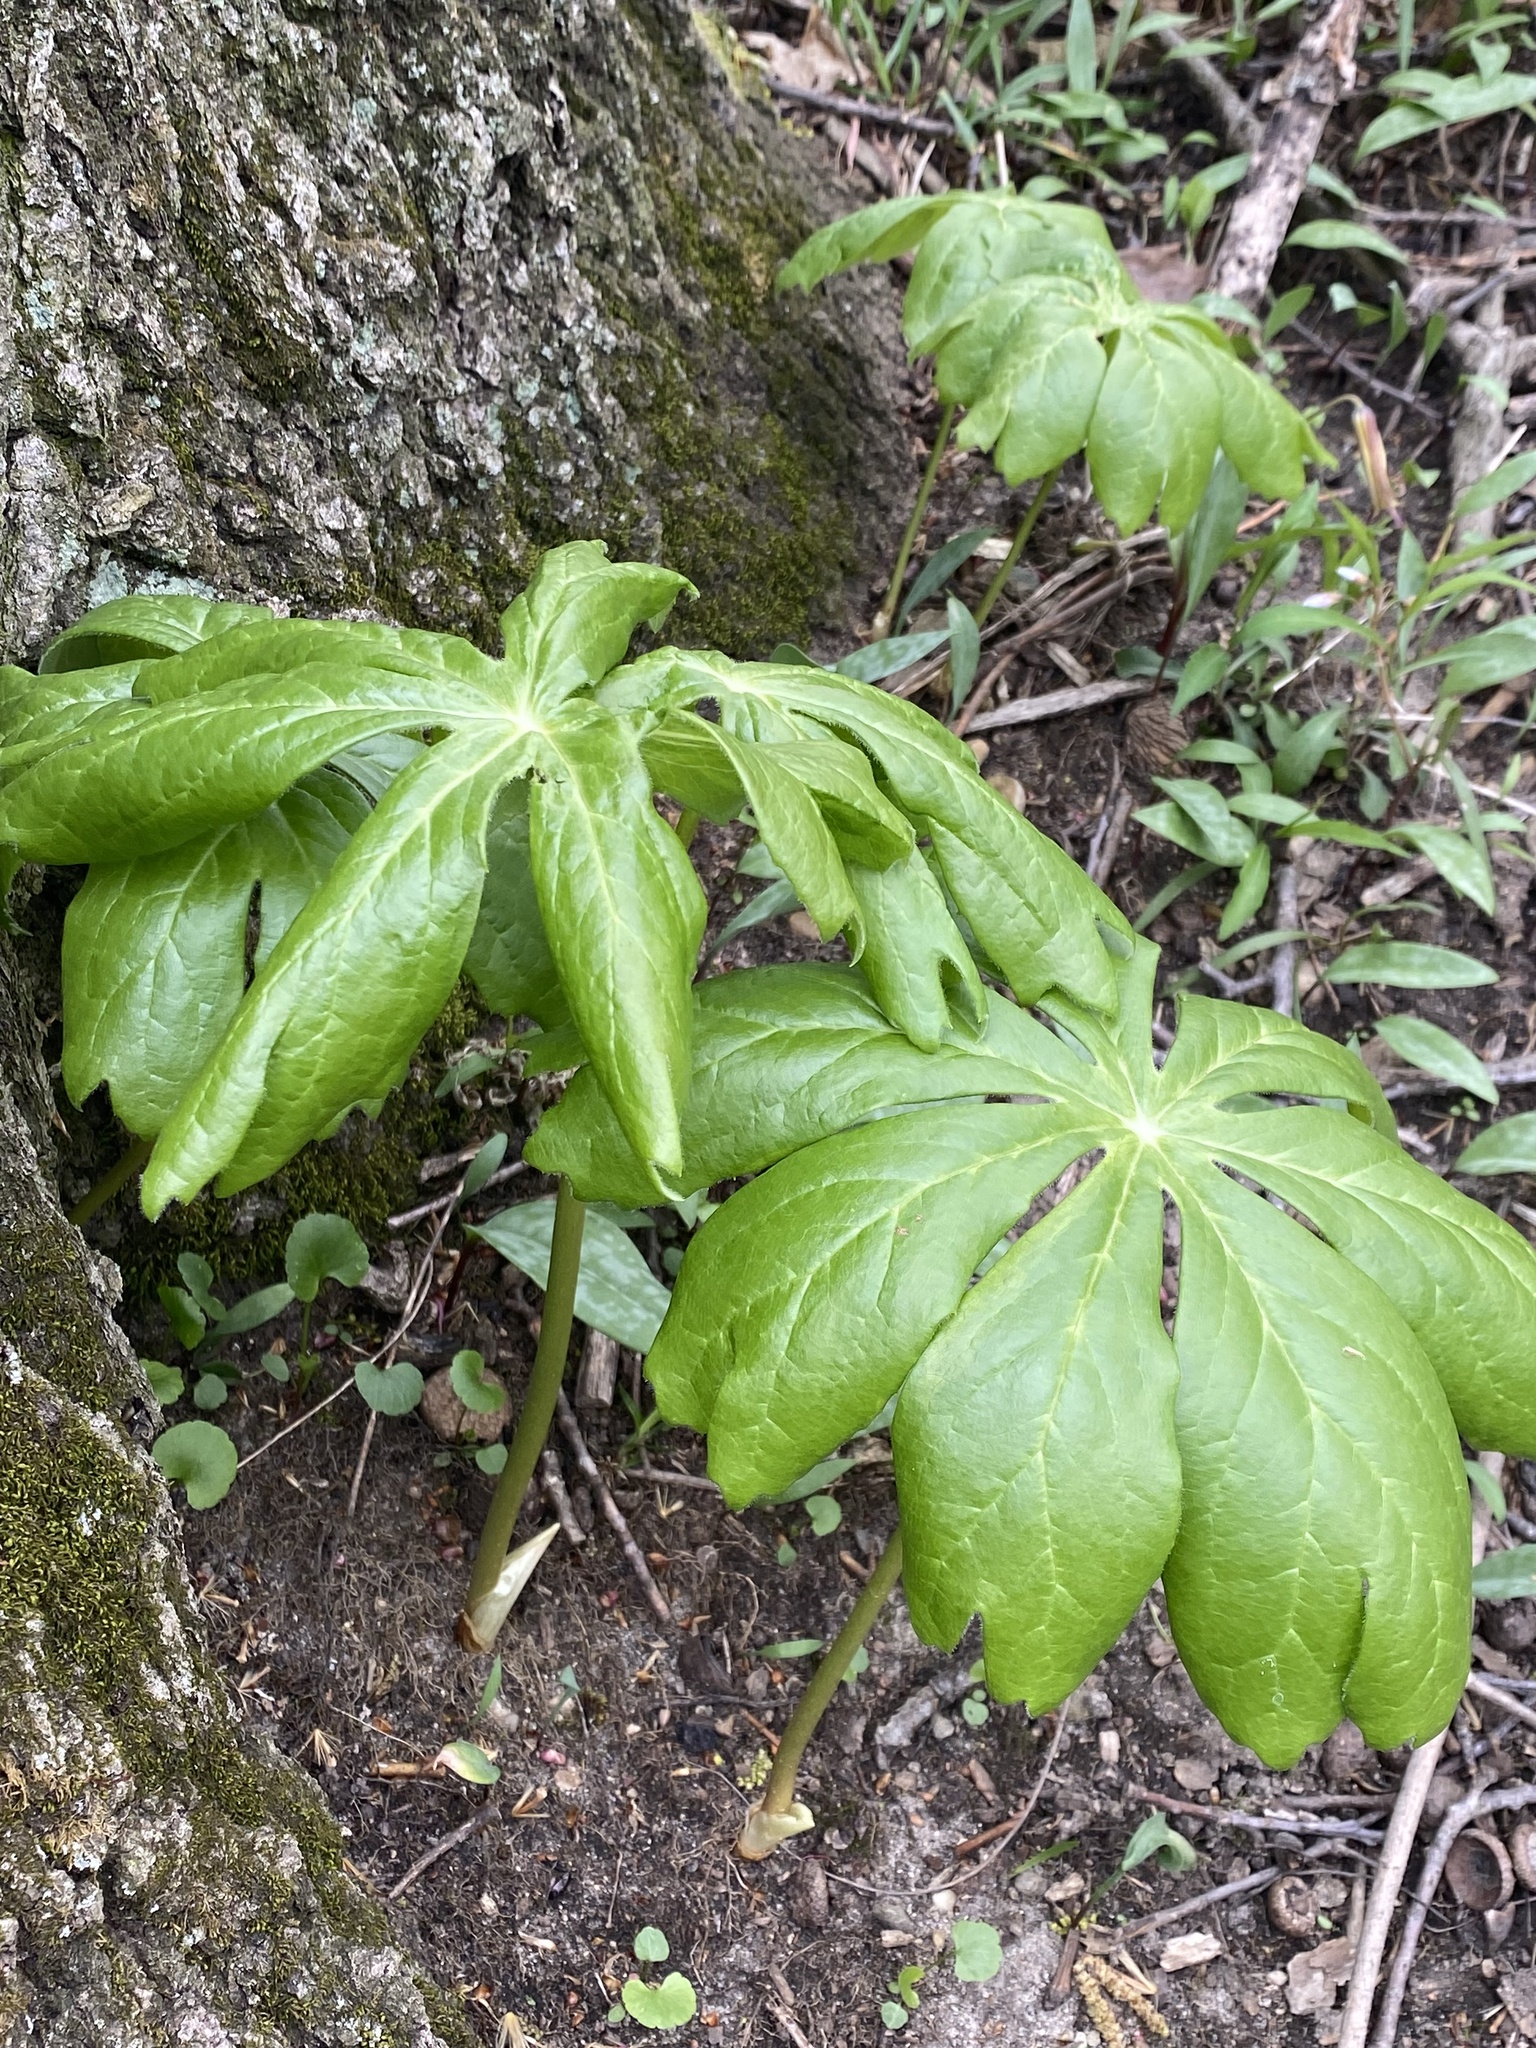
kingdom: Plantae
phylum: Tracheophyta
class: Magnoliopsida
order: Ranunculales
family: Berberidaceae
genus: Podophyllum
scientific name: Podophyllum peltatum
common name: Wild mandrake
